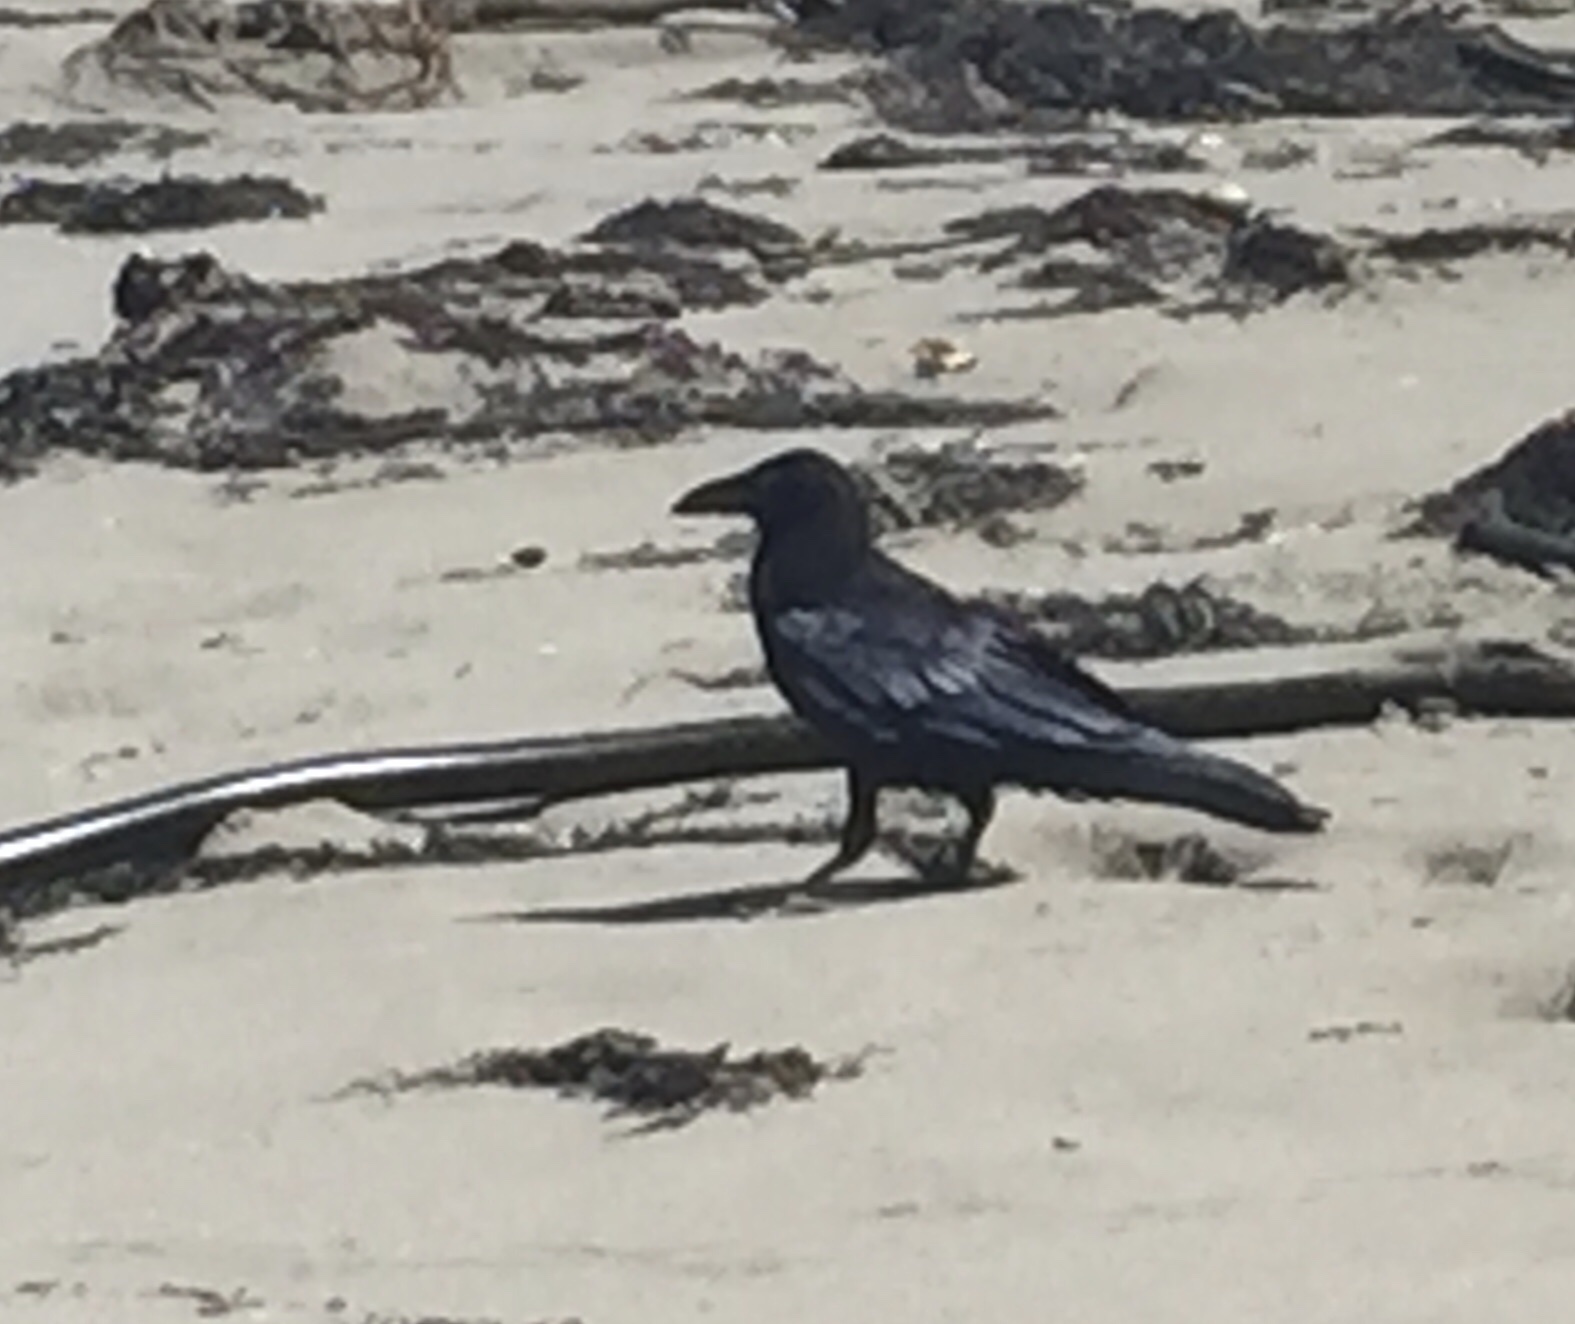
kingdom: Animalia
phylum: Chordata
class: Aves
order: Passeriformes
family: Corvidae
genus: Corvus
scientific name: Corvus corax
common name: Common raven
